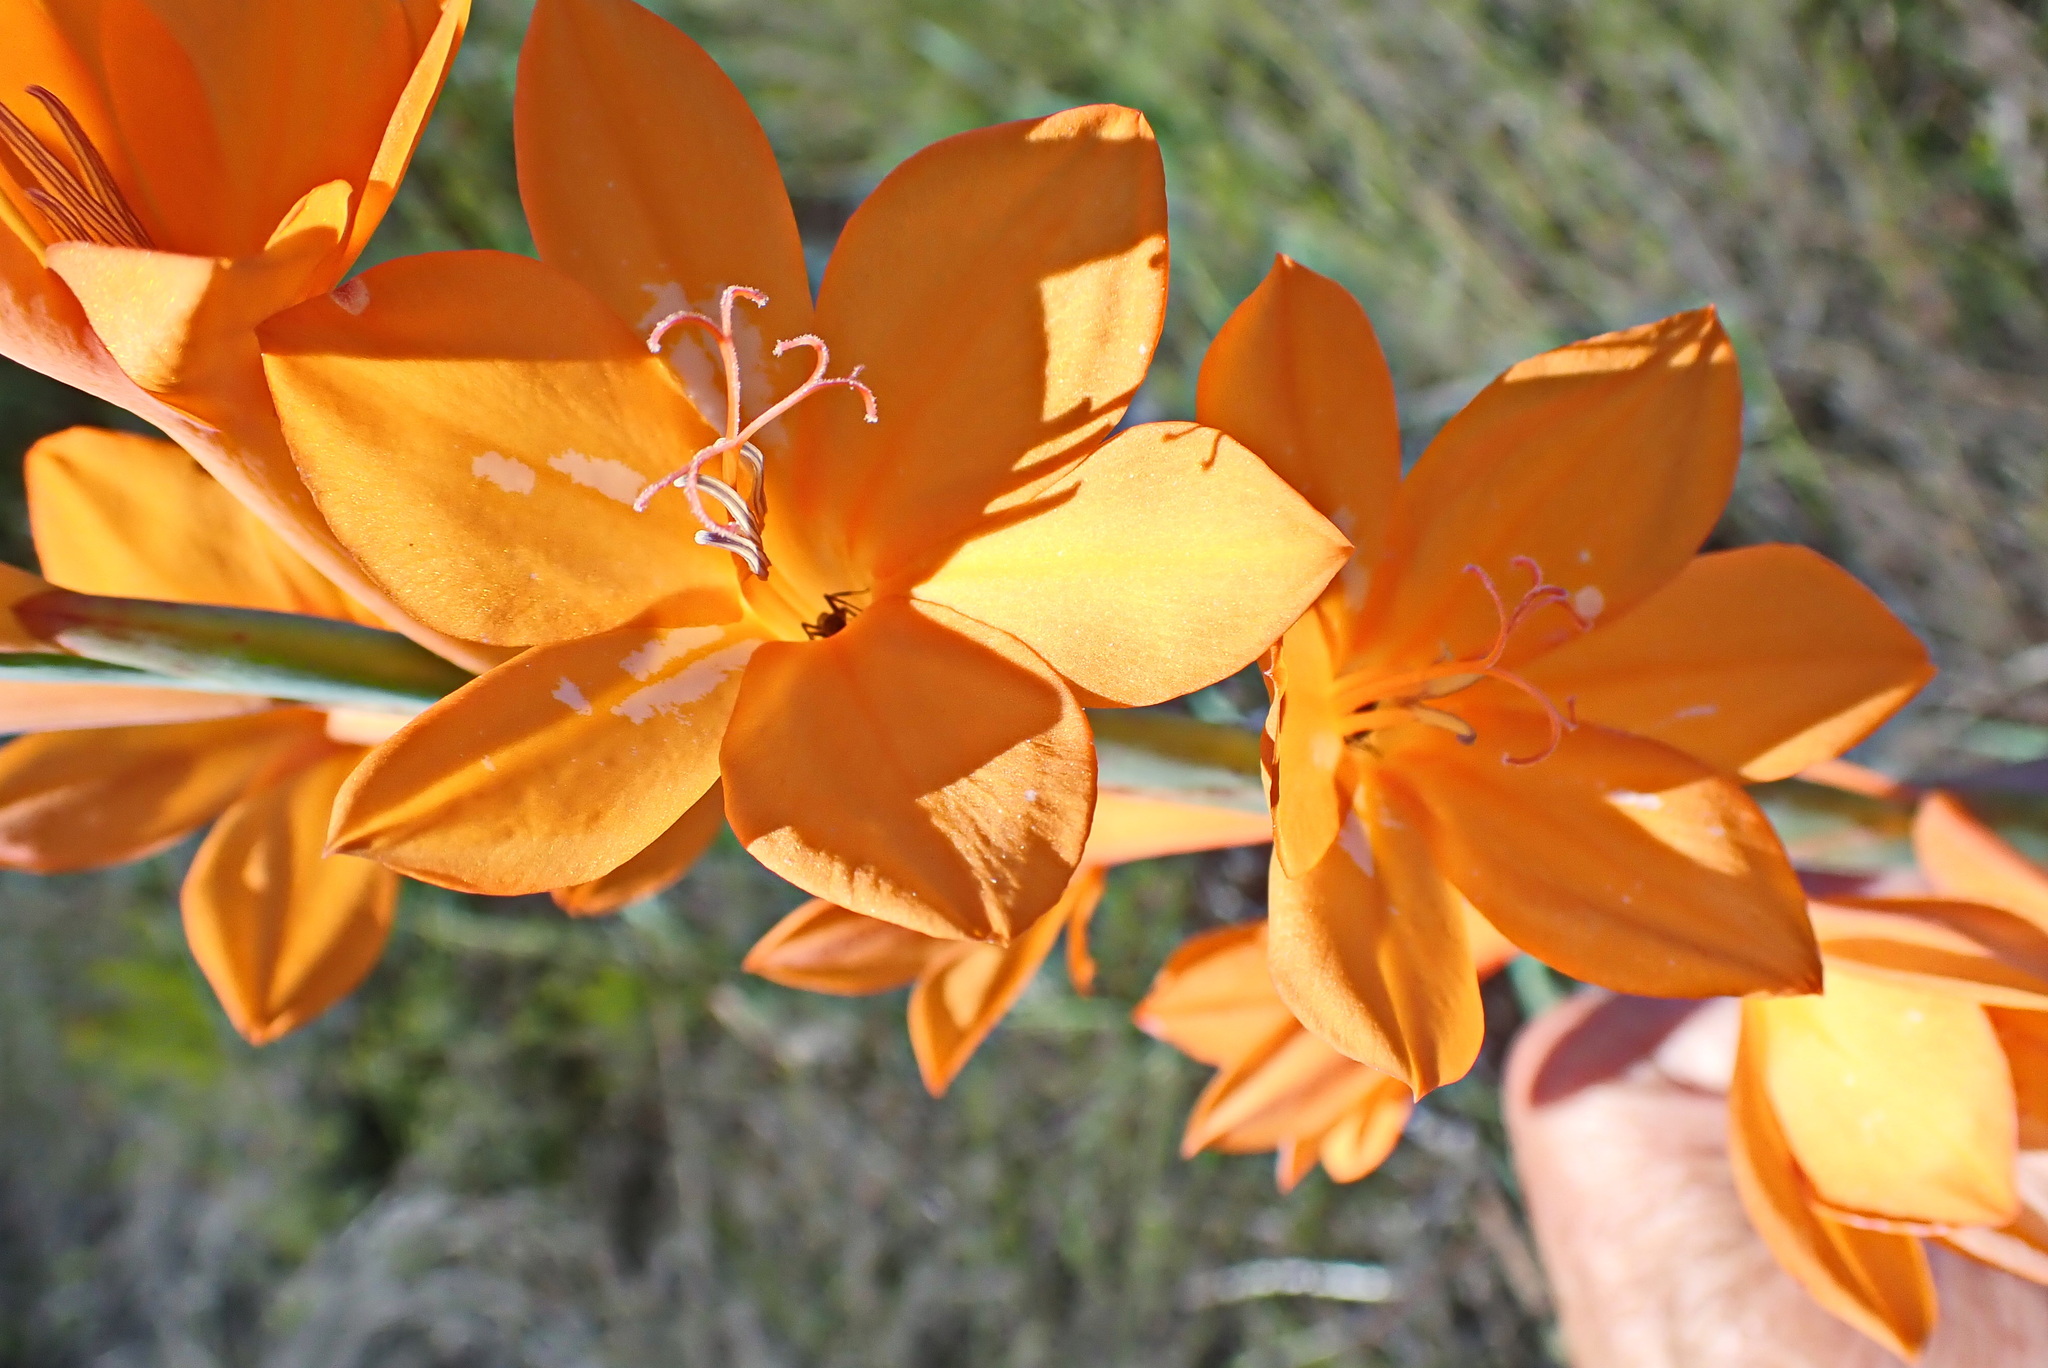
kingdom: Plantae
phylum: Tracheophyta
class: Liliopsida
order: Asparagales
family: Iridaceae
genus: Watsonia
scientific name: Watsonia pillansii
